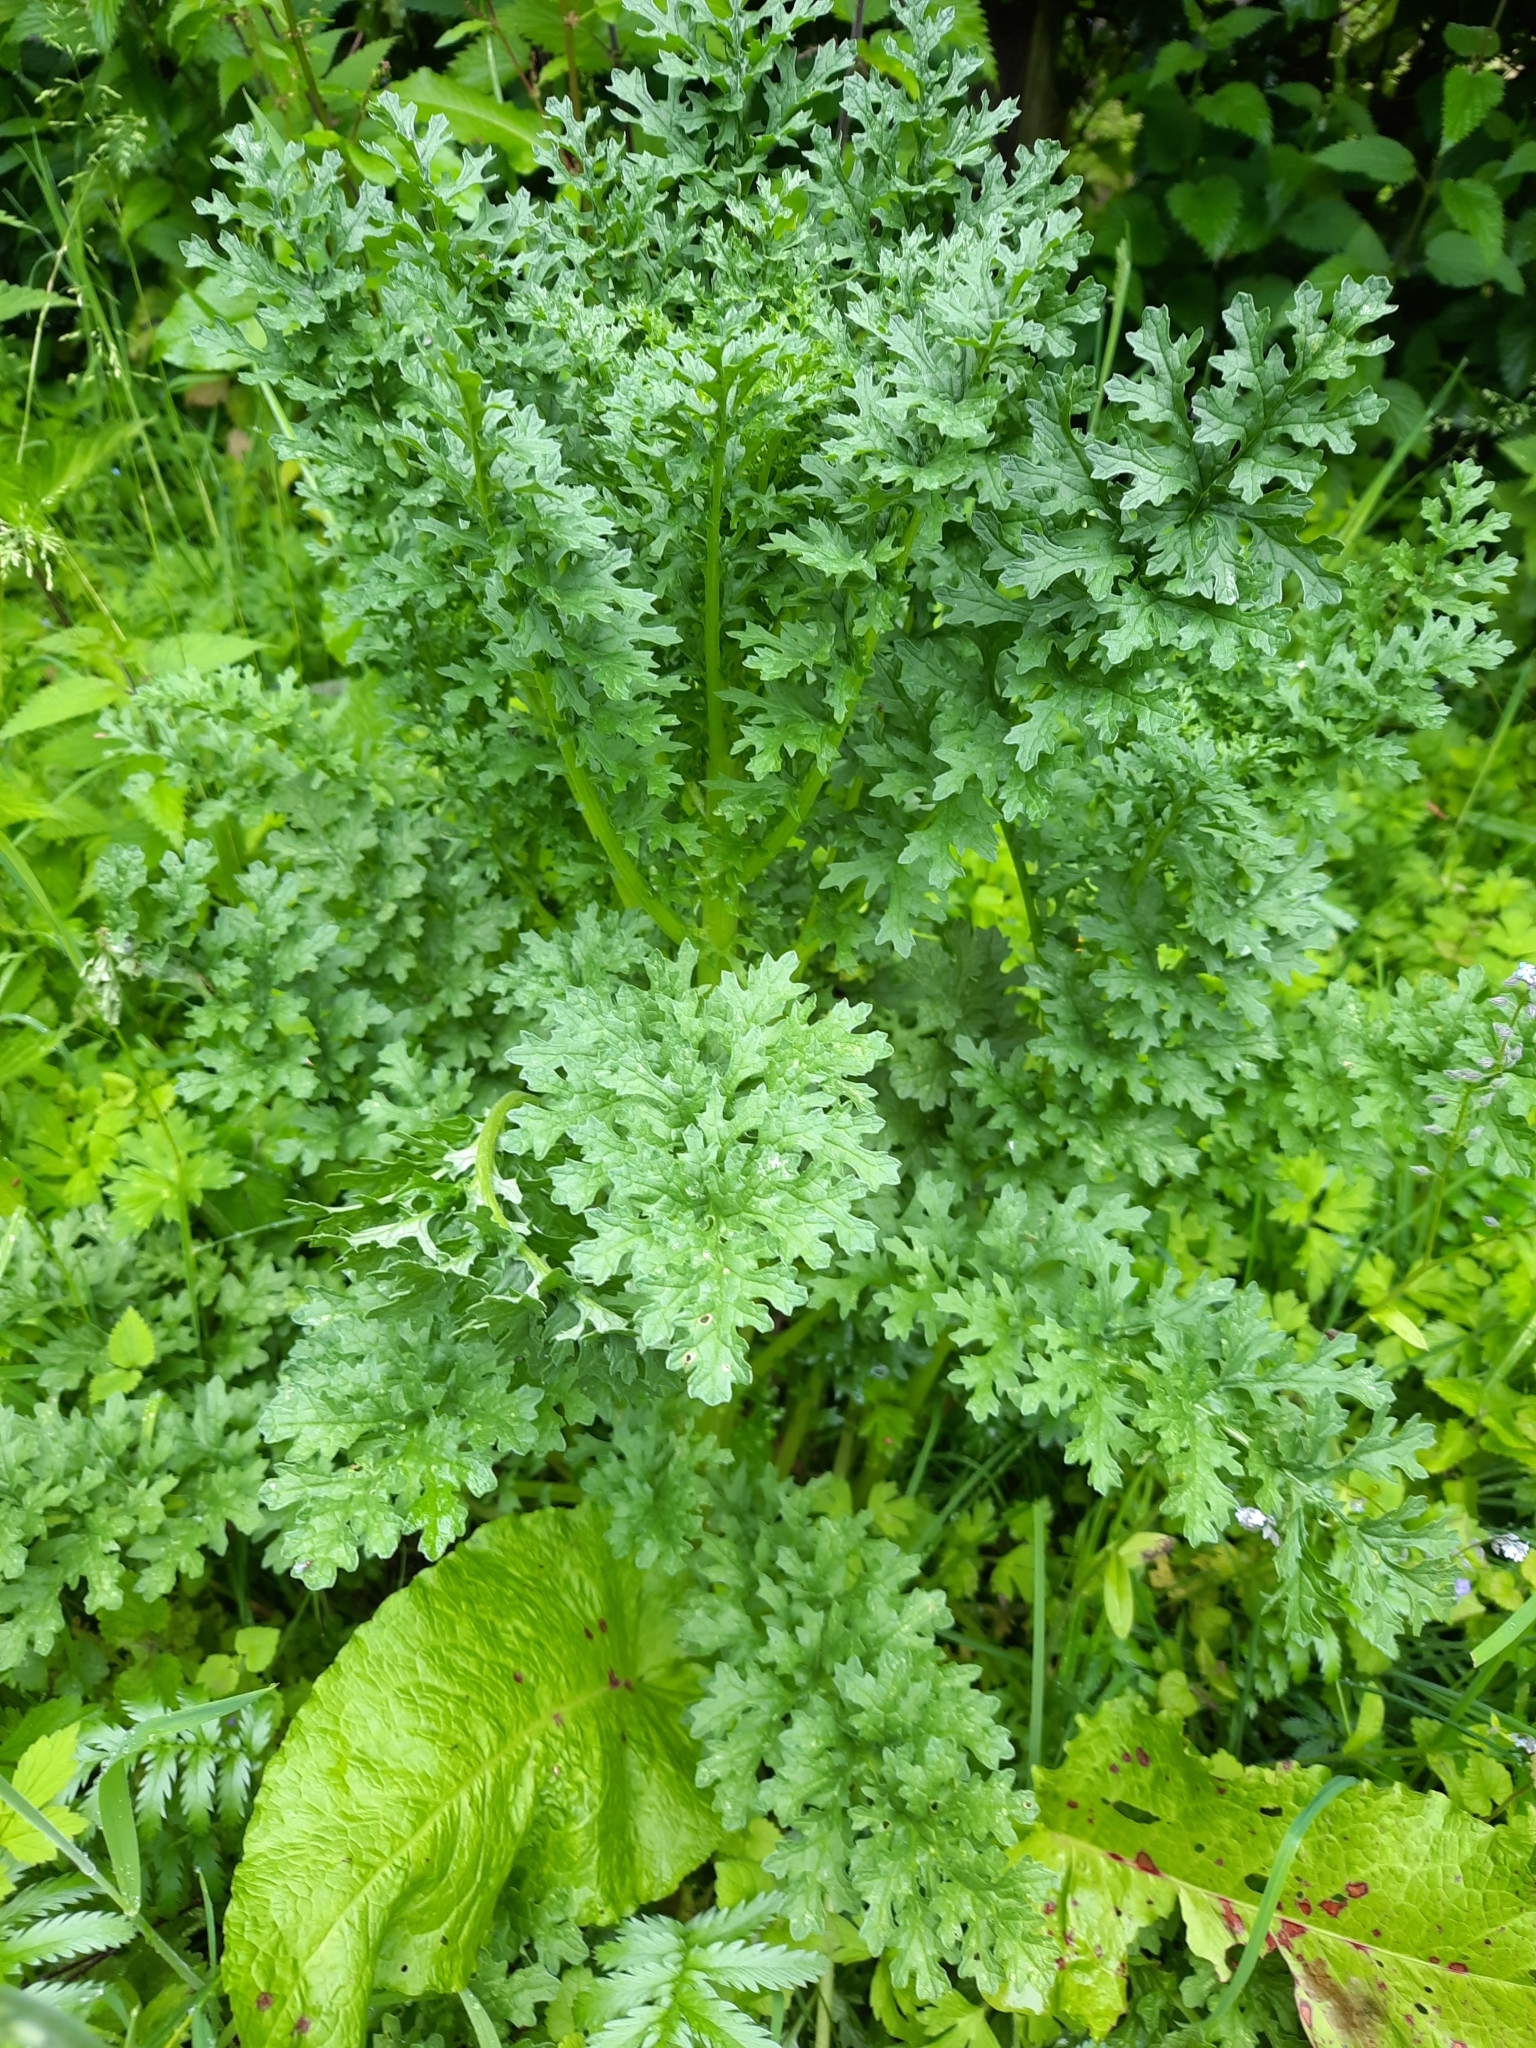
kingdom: Plantae
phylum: Tracheophyta
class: Magnoliopsida
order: Asterales
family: Asteraceae
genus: Jacobaea
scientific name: Jacobaea vulgaris
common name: Stinking willie
